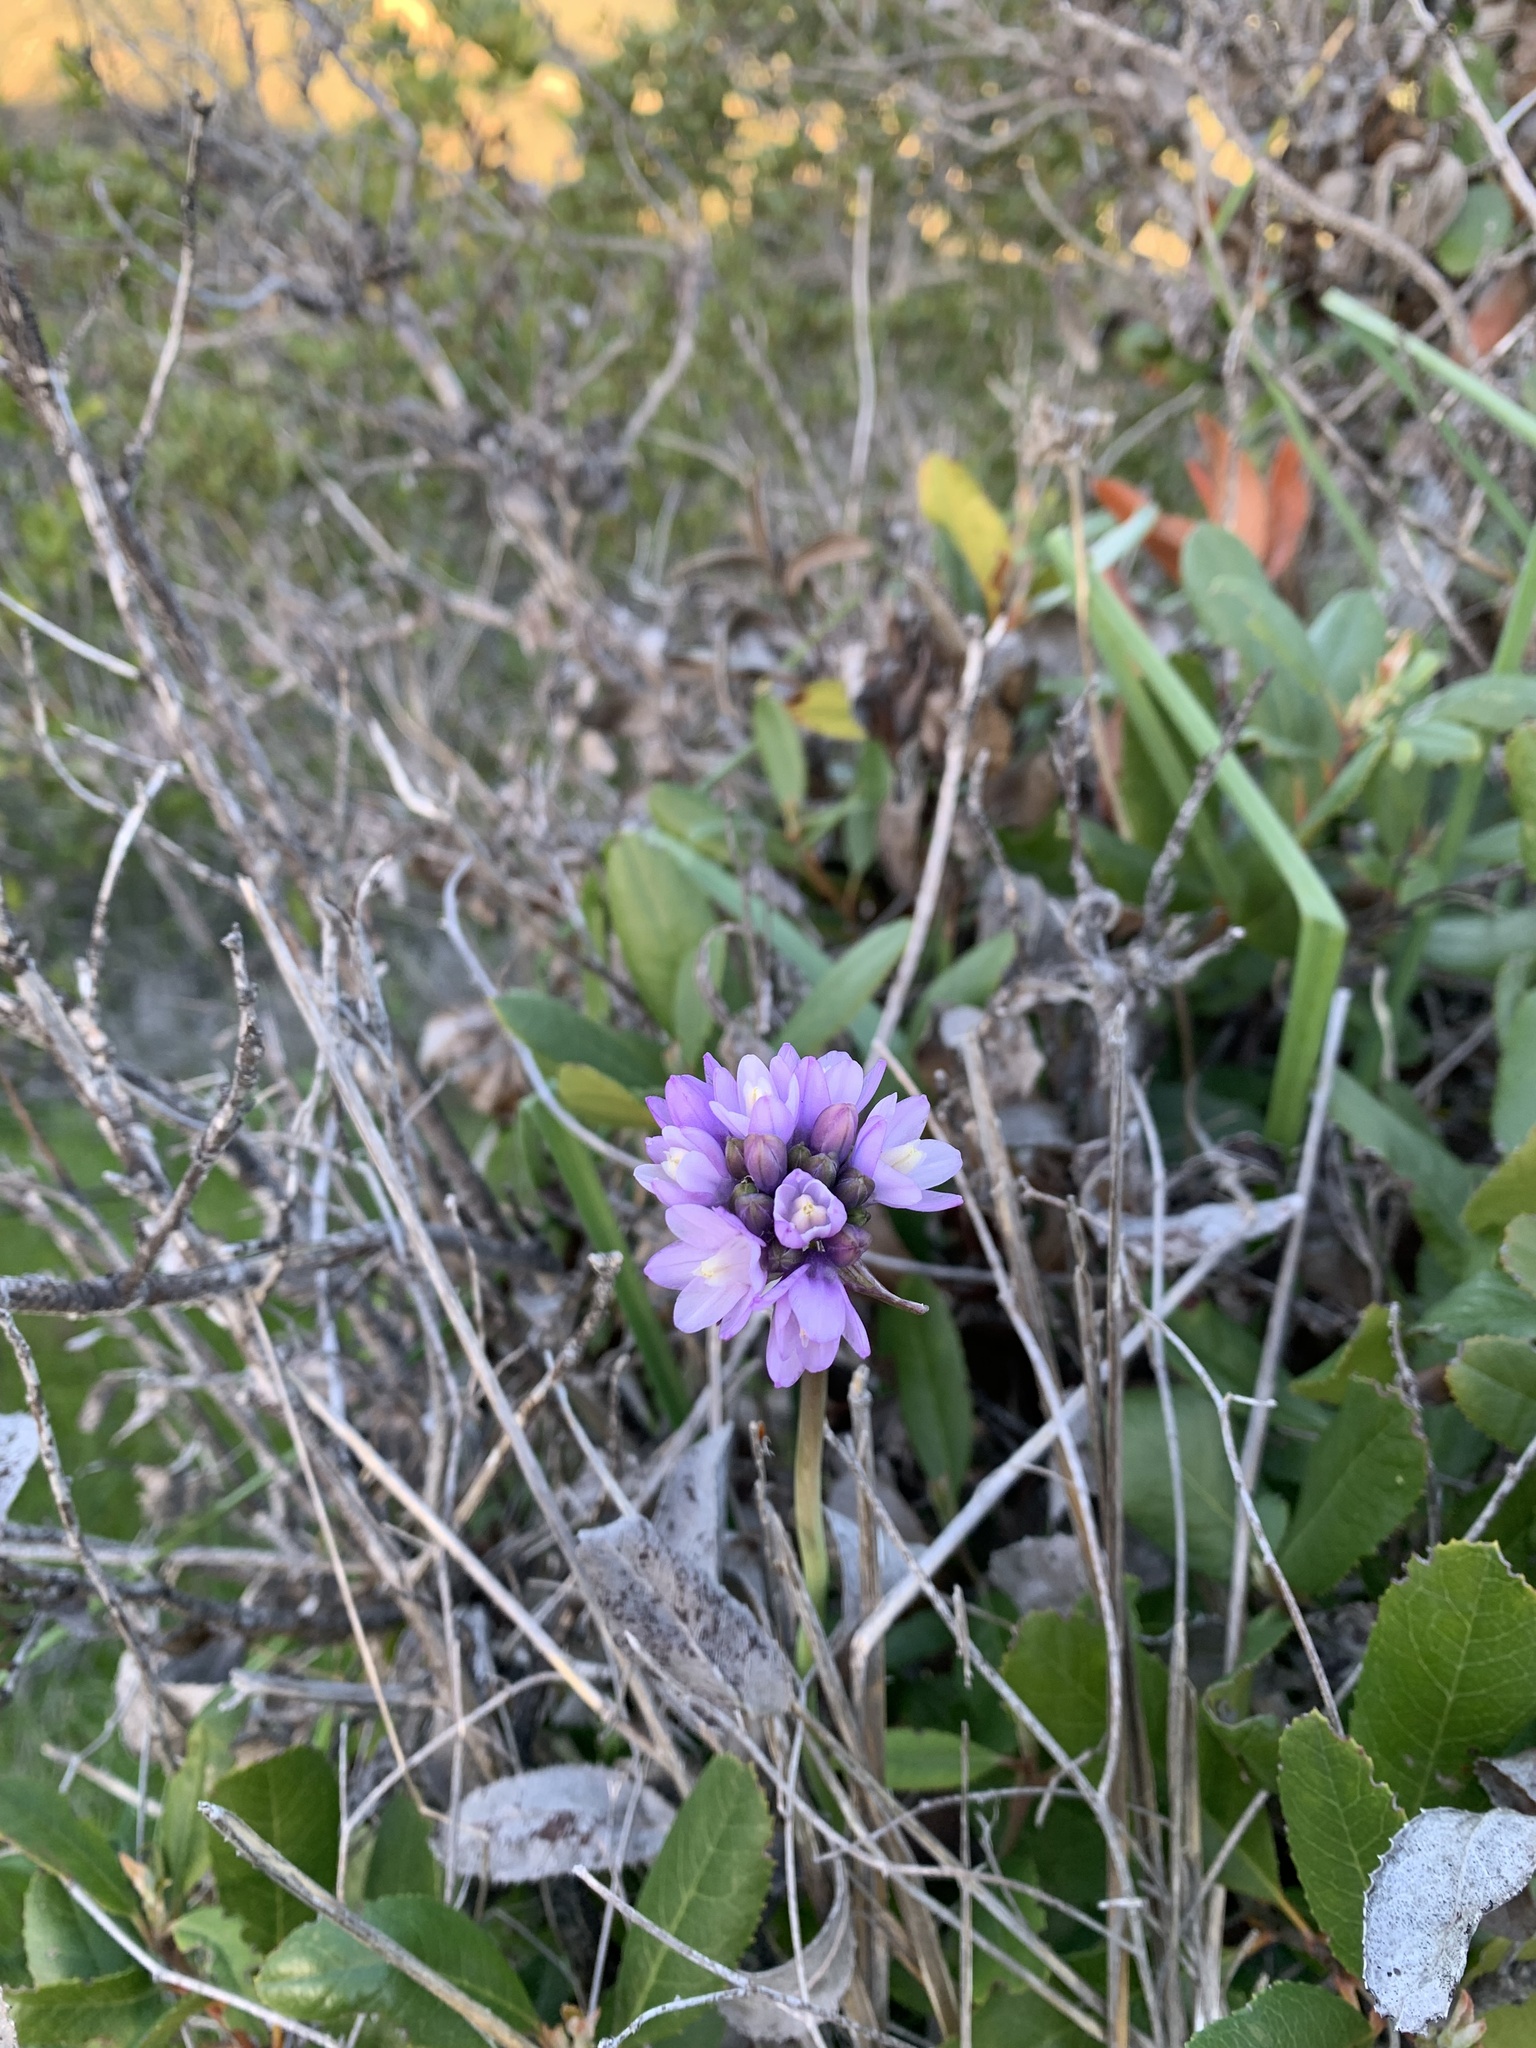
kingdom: Plantae
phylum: Tracheophyta
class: Liliopsida
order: Asparagales
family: Asparagaceae
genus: Dipterostemon
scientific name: Dipterostemon capitatus
